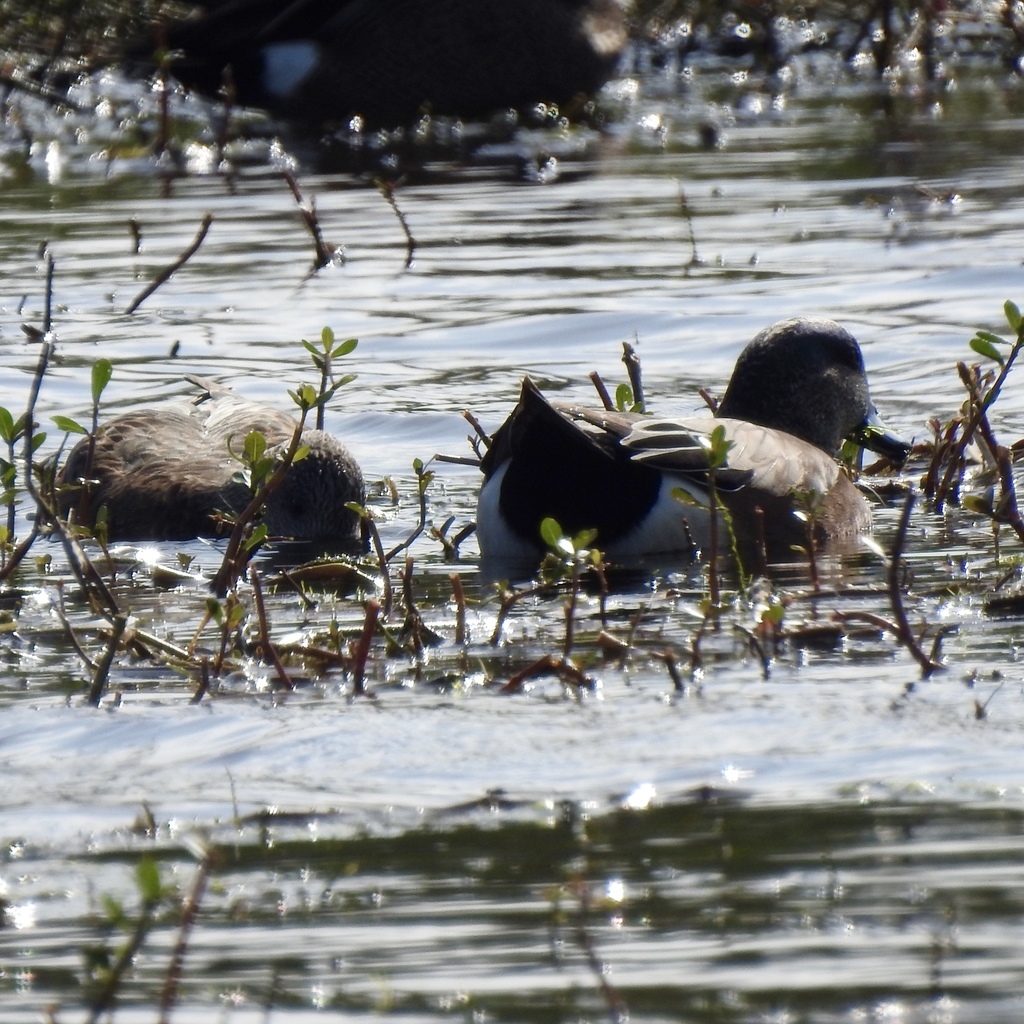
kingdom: Animalia
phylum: Chordata
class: Aves
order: Anseriformes
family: Anatidae
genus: Mareca
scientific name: Mareca americana
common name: American wigeon
